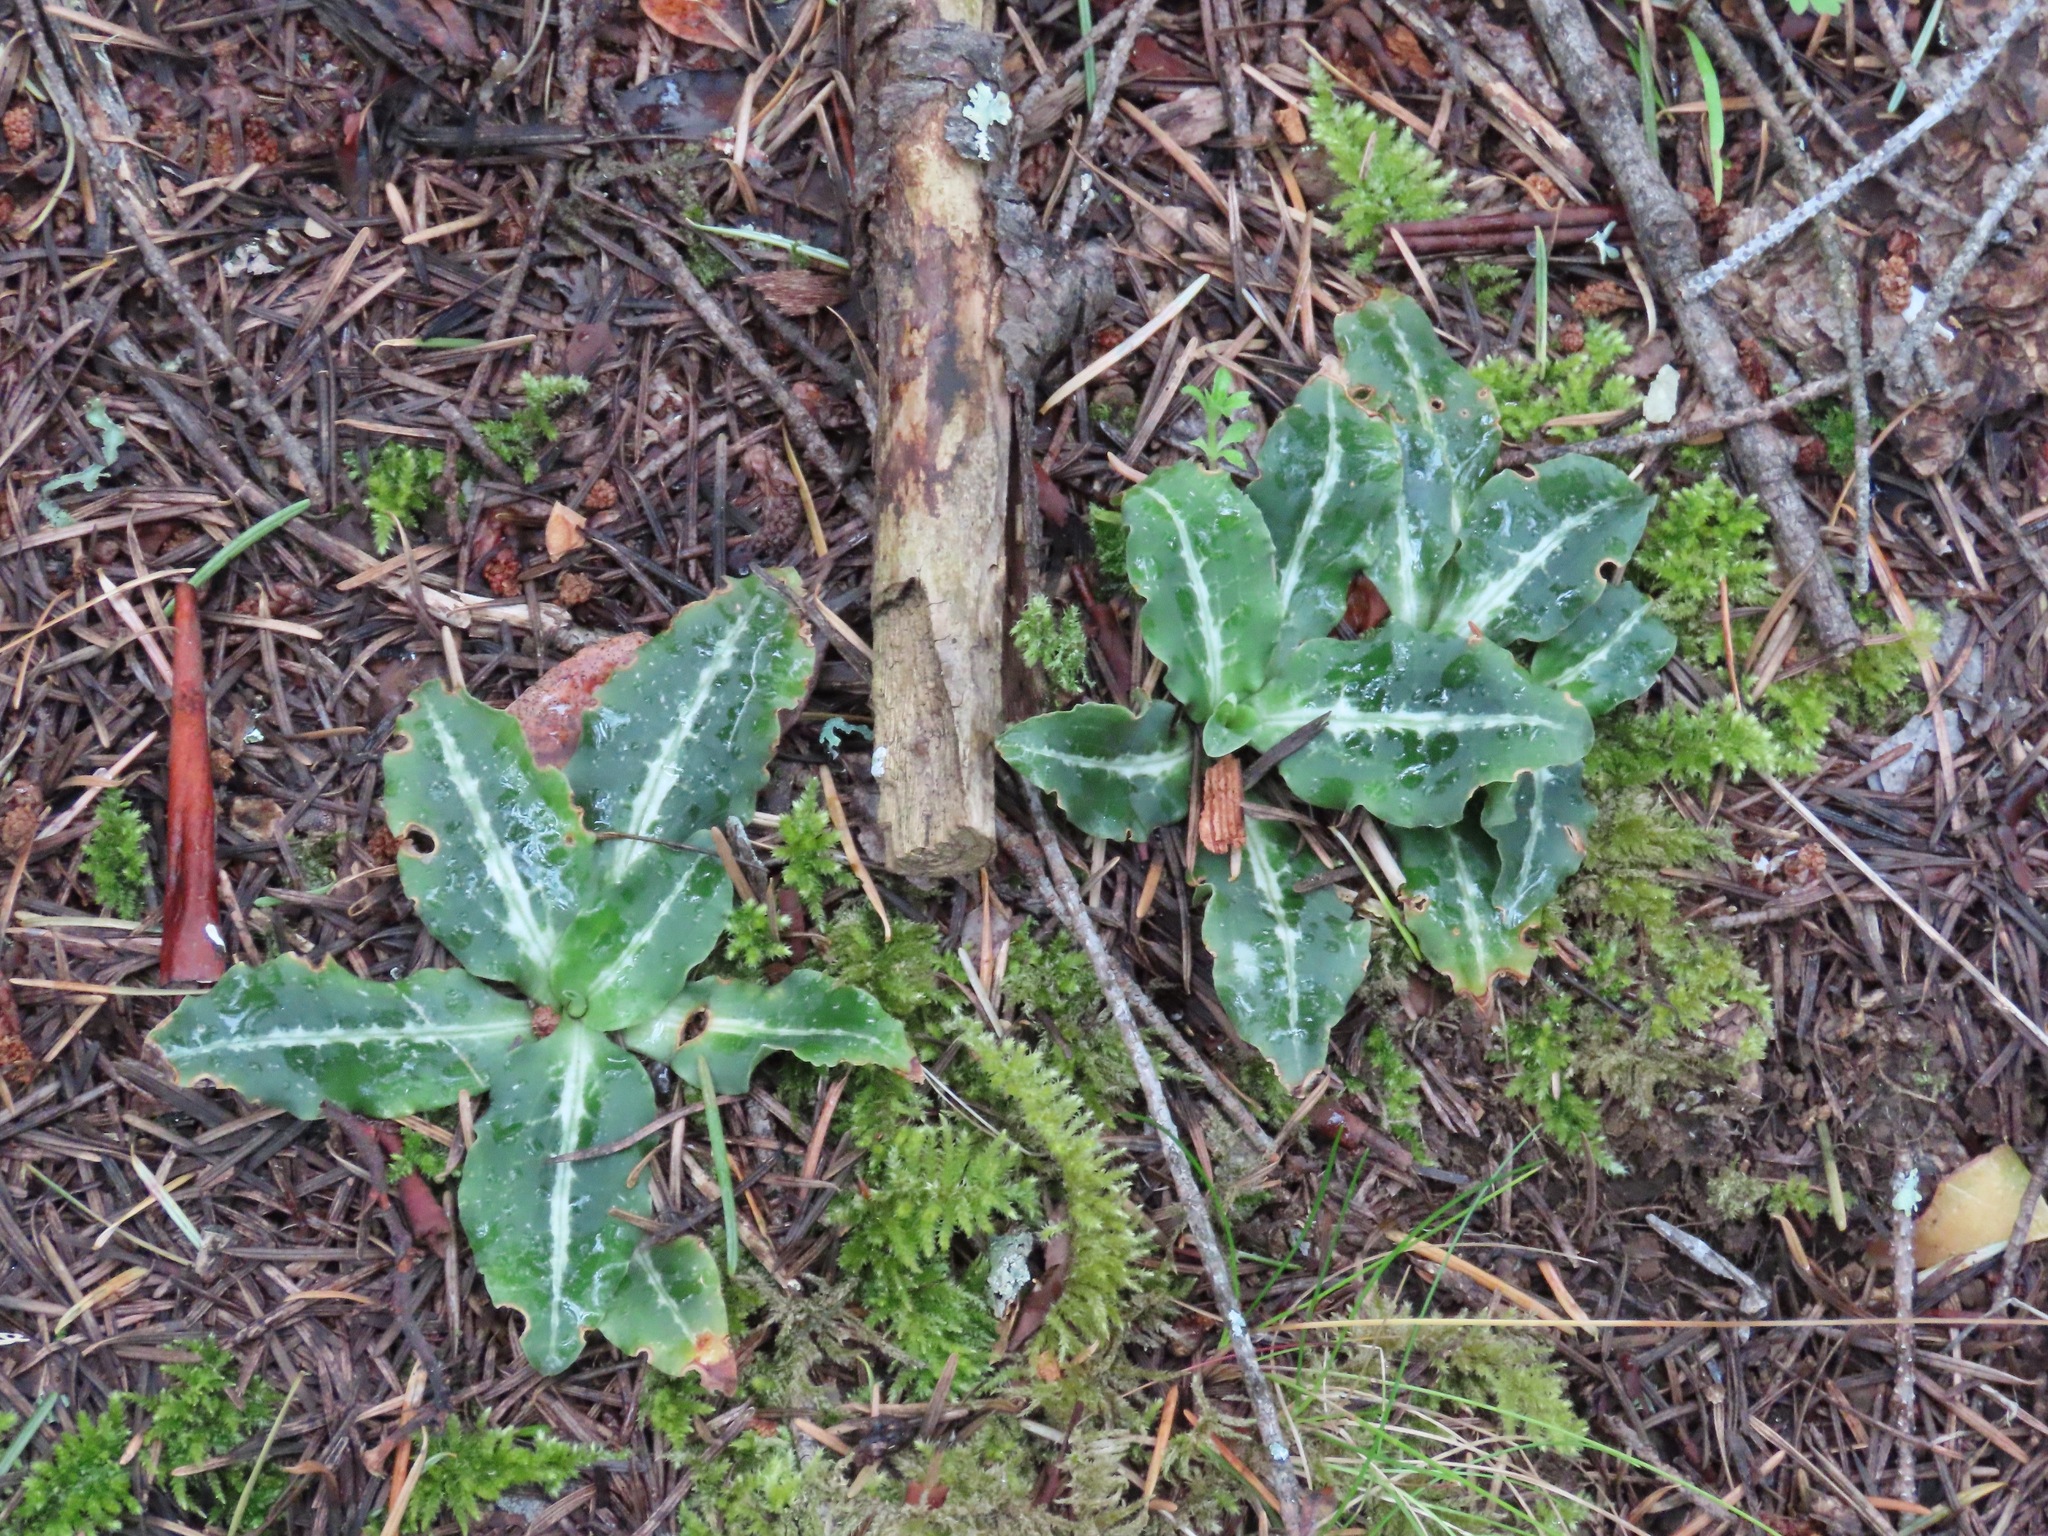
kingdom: Plantae
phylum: Tracheophyta
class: Liliopsida
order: Asparagales
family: Orchidaceae
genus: Goodyera
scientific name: Goodyera oblongifolia
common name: Giant rattlesnake-plantain
